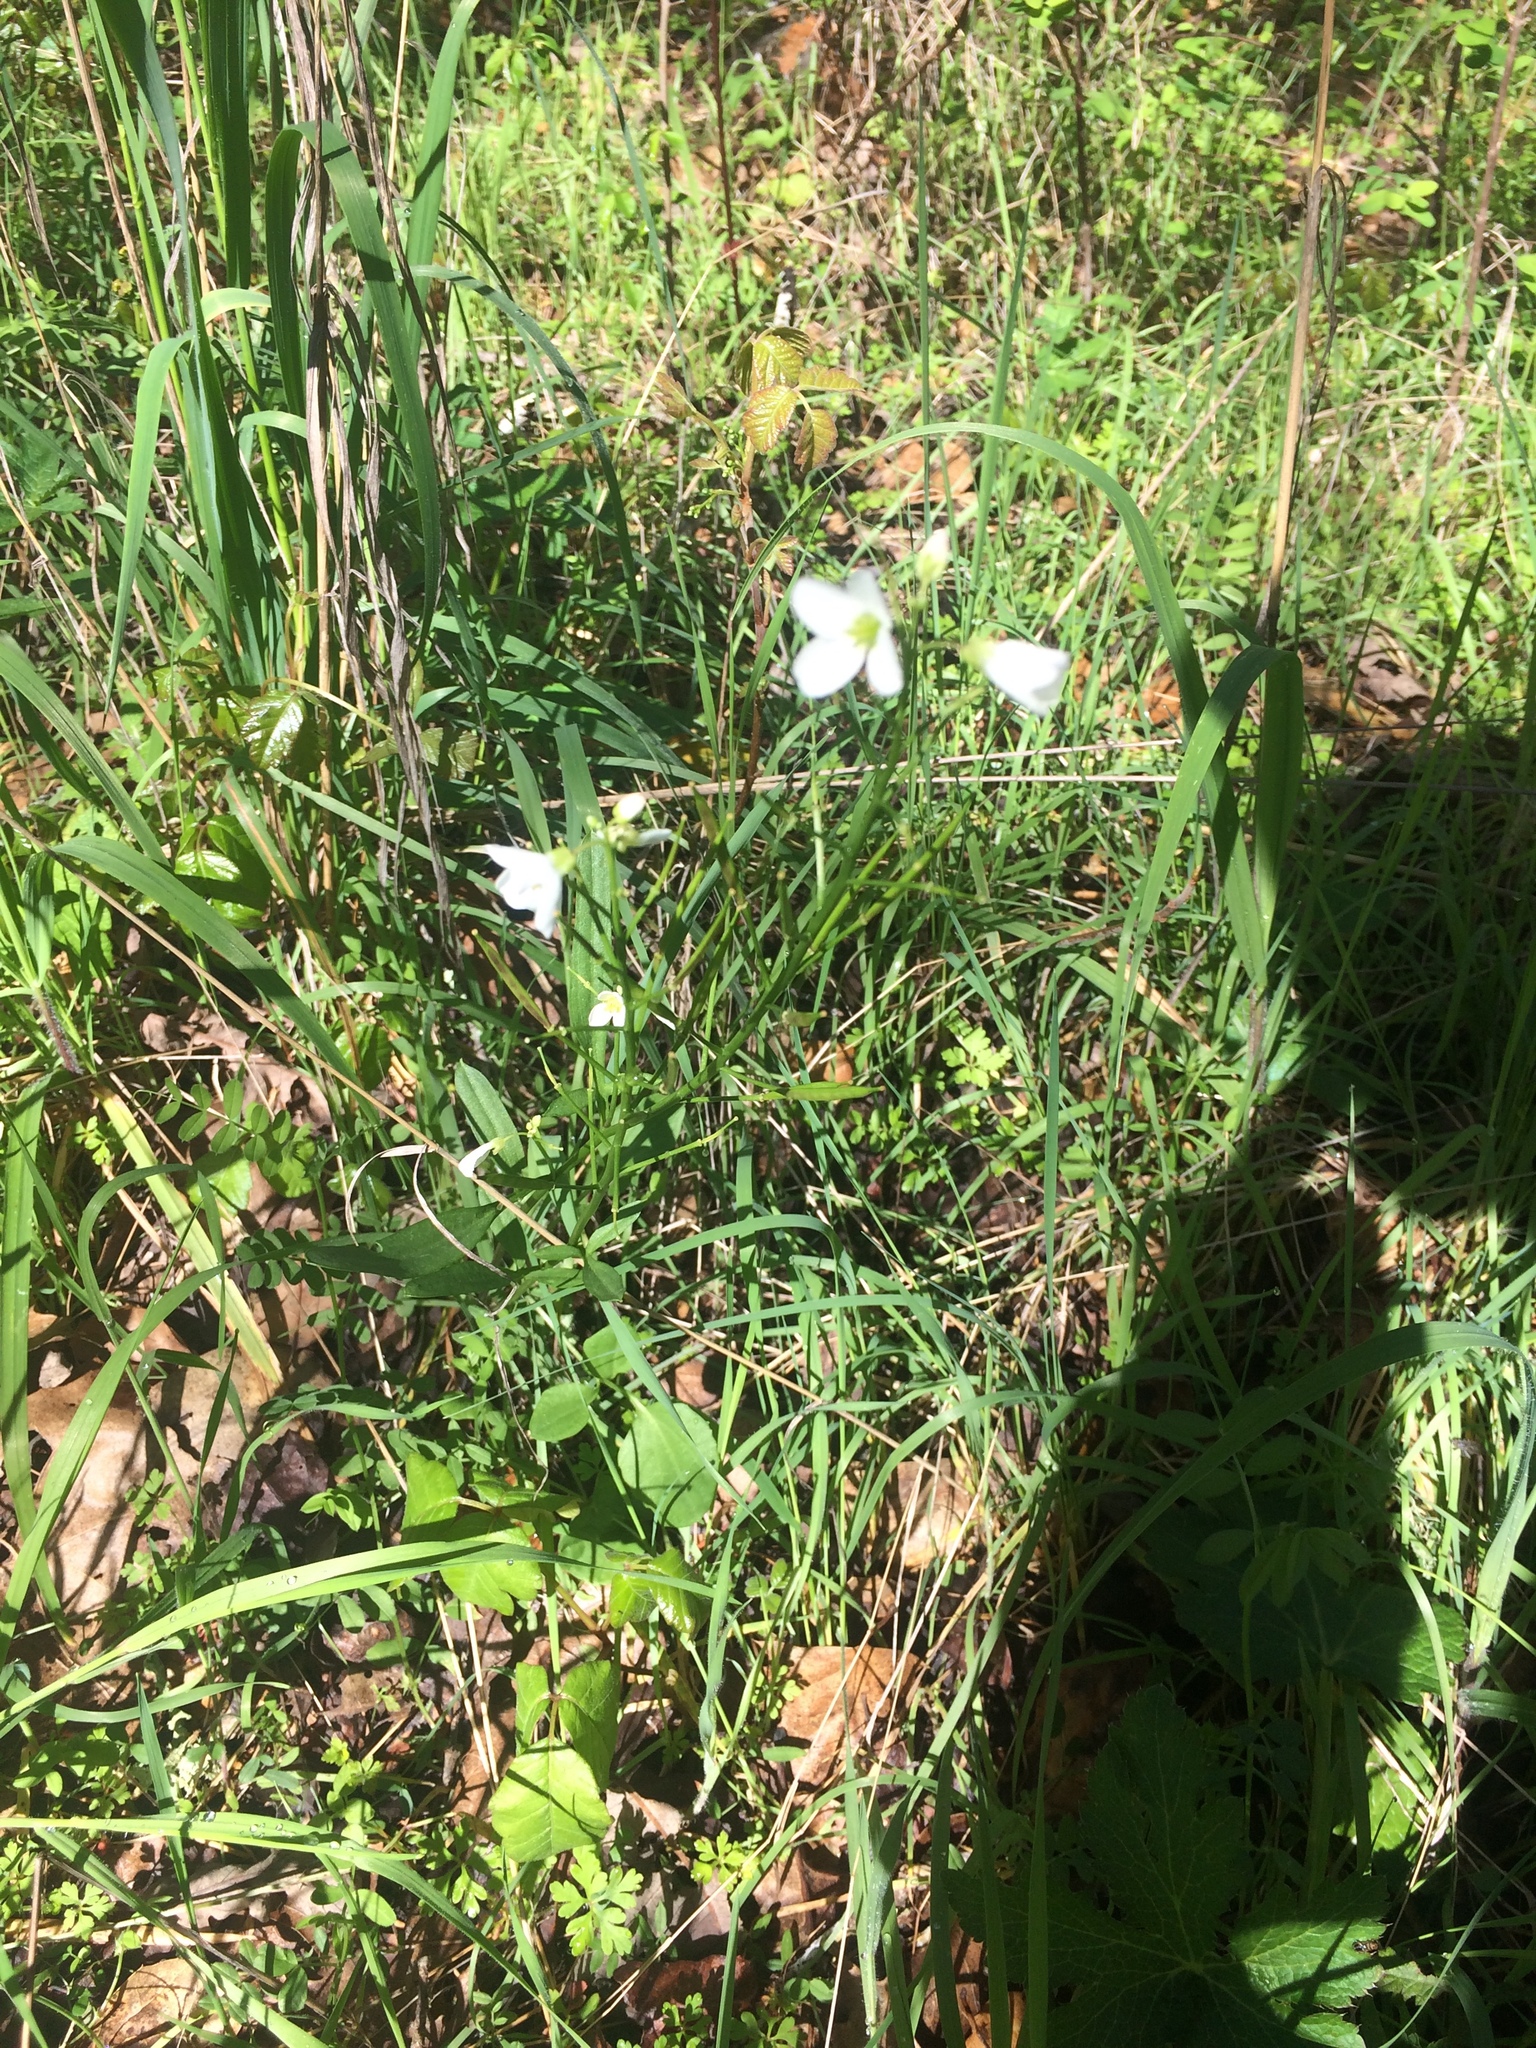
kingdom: Plantae
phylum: Tracheophyta
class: Magnoliopsida
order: Brassicales
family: Brassicaceae
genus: Cardamine
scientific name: Cardamine californica
